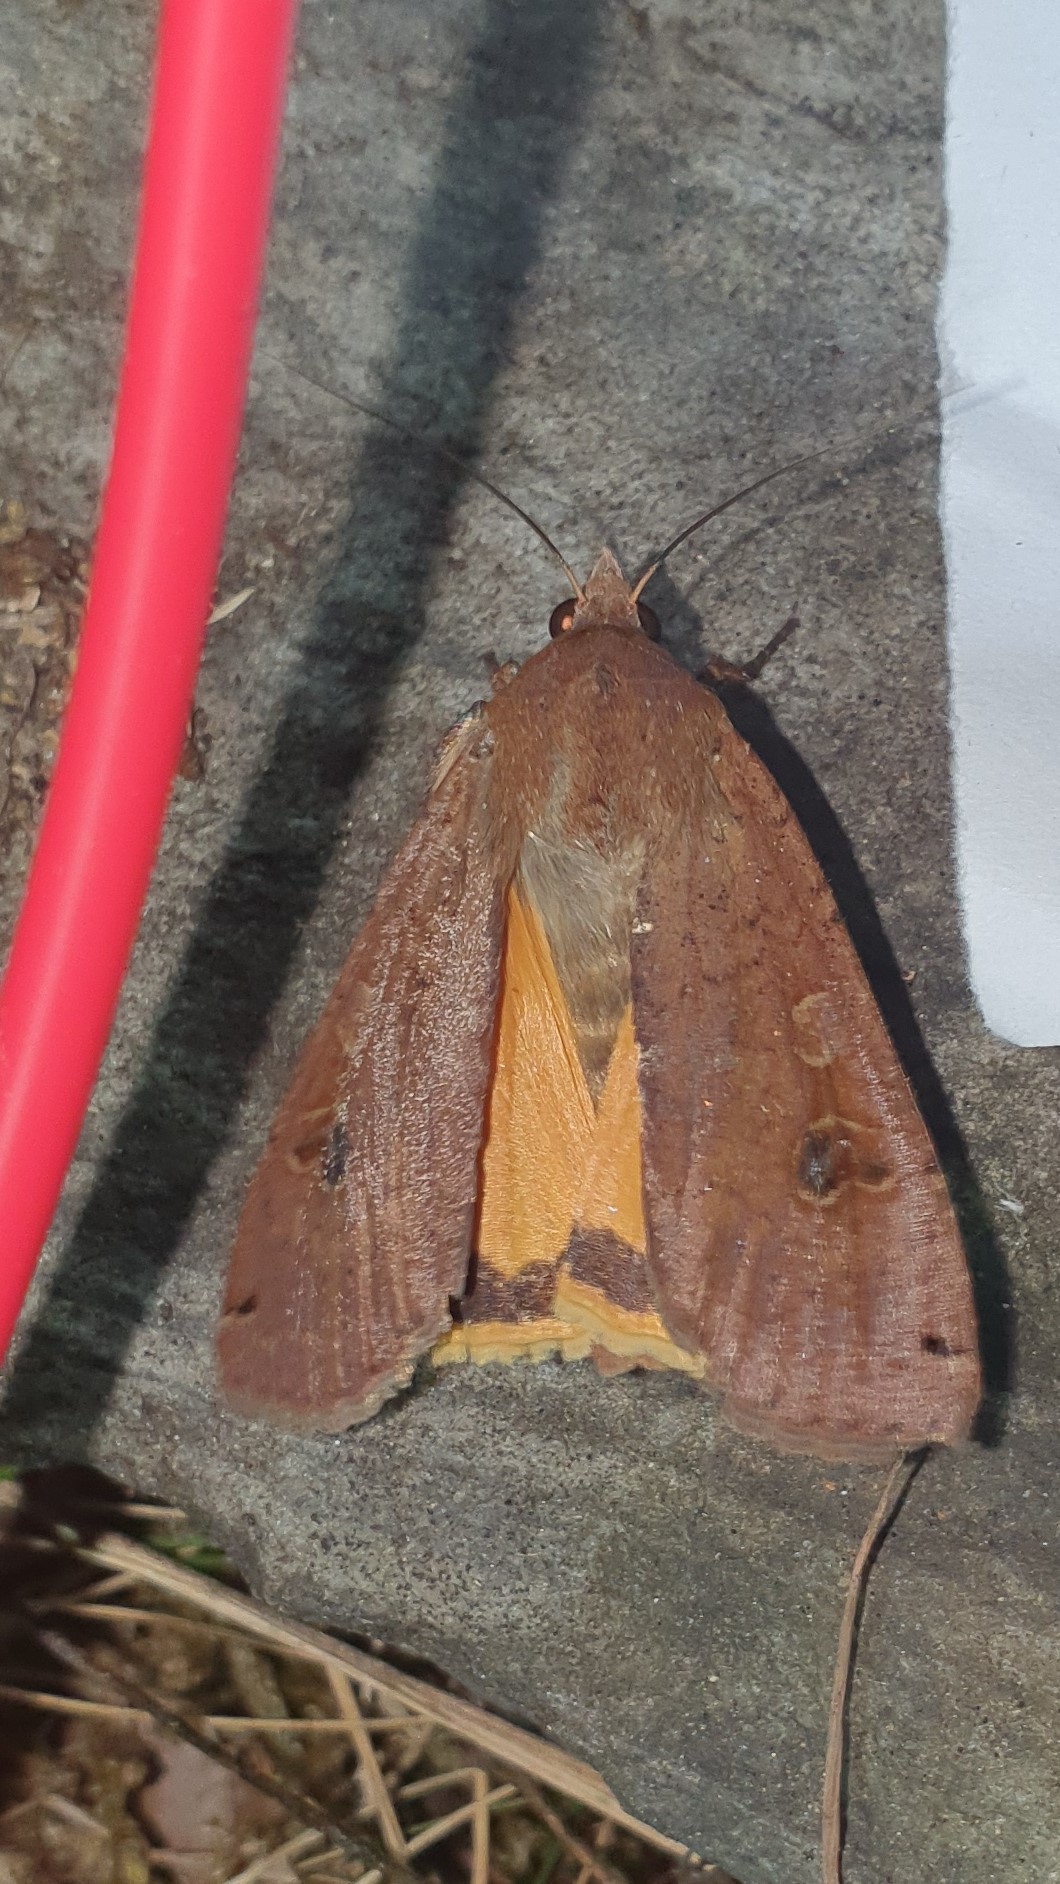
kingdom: Animalia
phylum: Arthropoda
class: Insecta
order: Lepidoptera
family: Noctuidae
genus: Noctua
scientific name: Noctua pronuba
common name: Large yellow underwing
